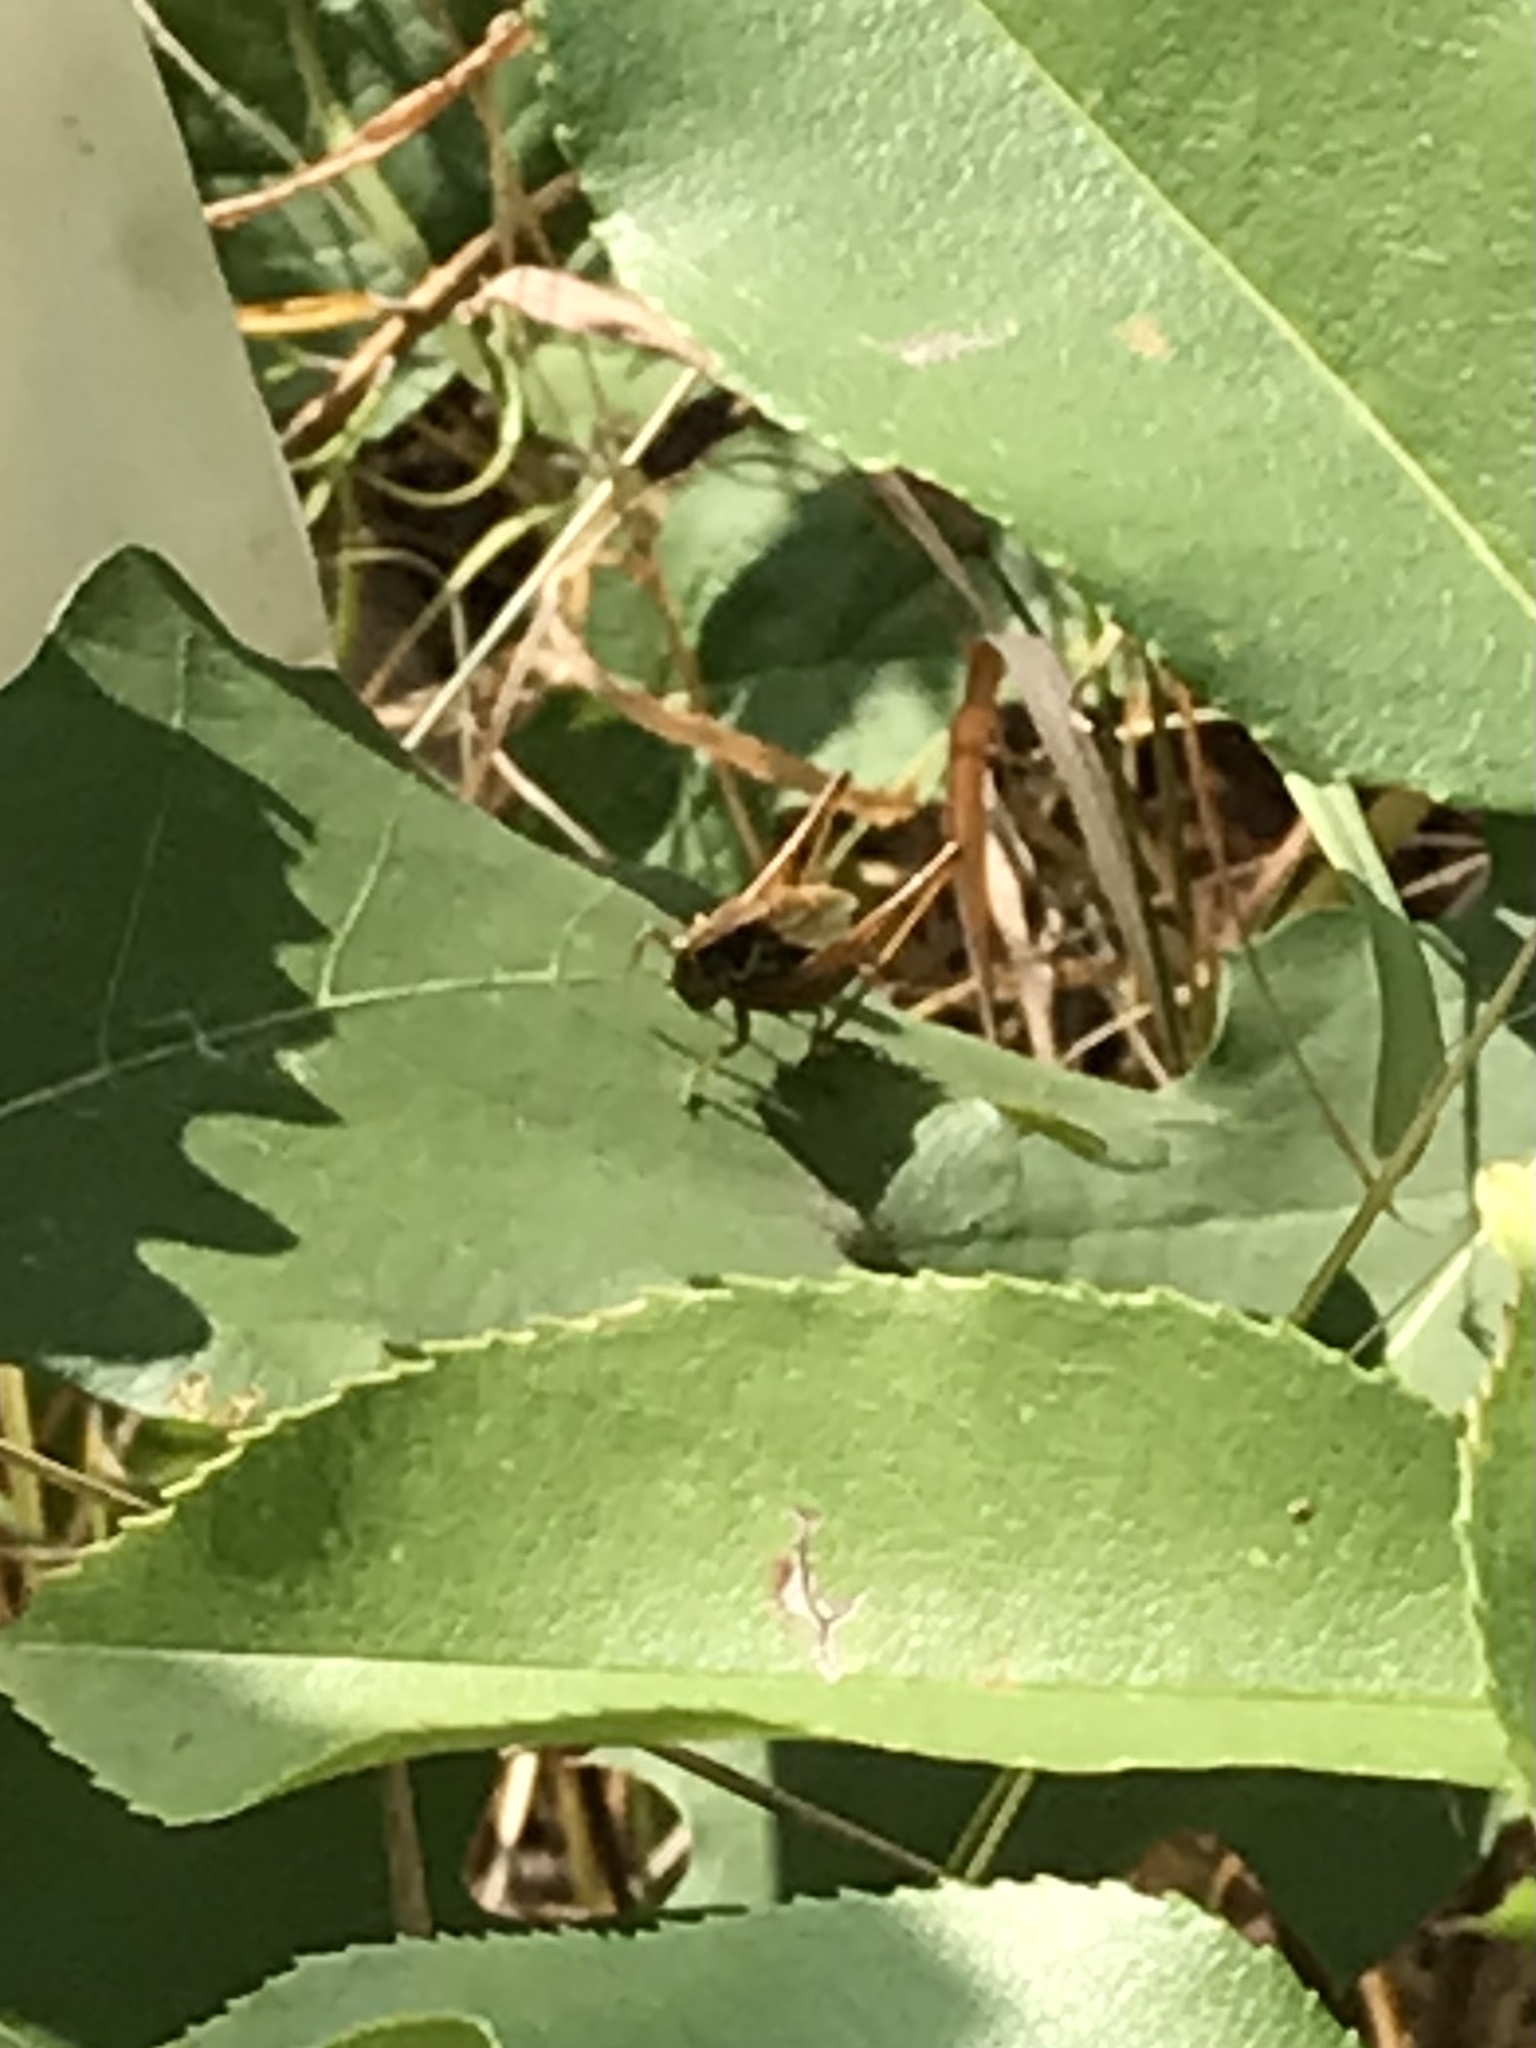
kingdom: Animalia
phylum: Arthropoda
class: Insecta
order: Orthoptera
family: Tettigoniidae
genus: Roeseliana
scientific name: Roeseliana roeselii
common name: Roesel's bush cricket
